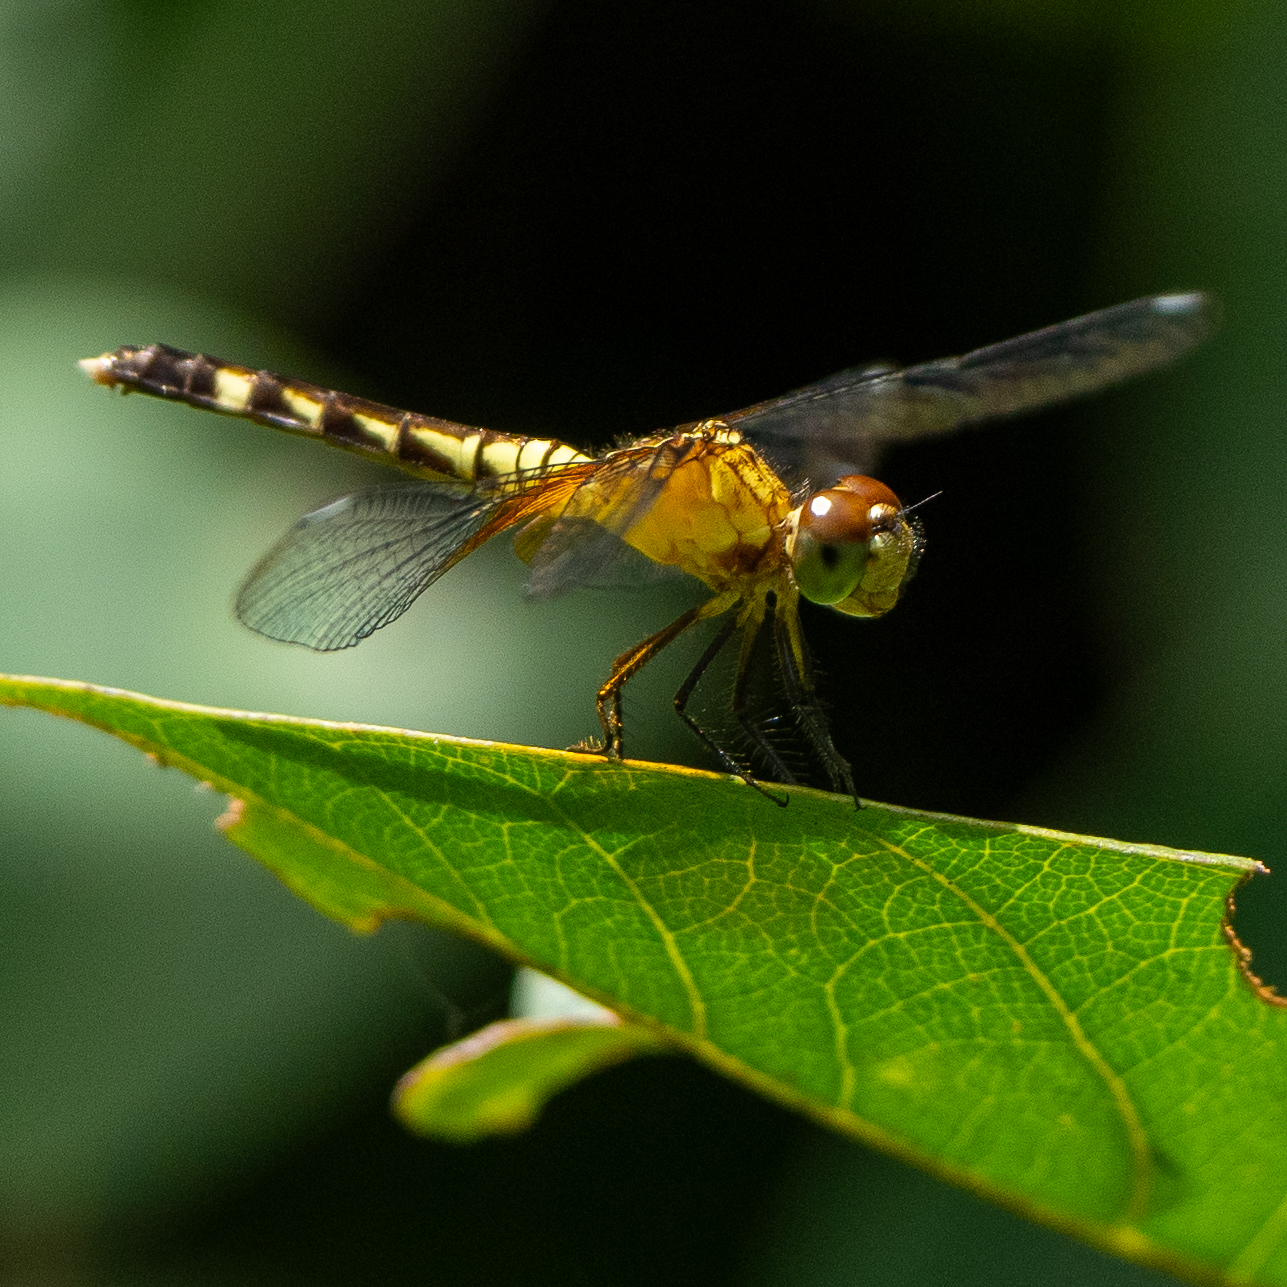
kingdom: Animalia
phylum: Arthropoda
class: Insecta
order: Odonata
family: Libellulidae
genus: Erythrodiplax
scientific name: Erythrodiplax fervida
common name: Red-mantled dragonlet
